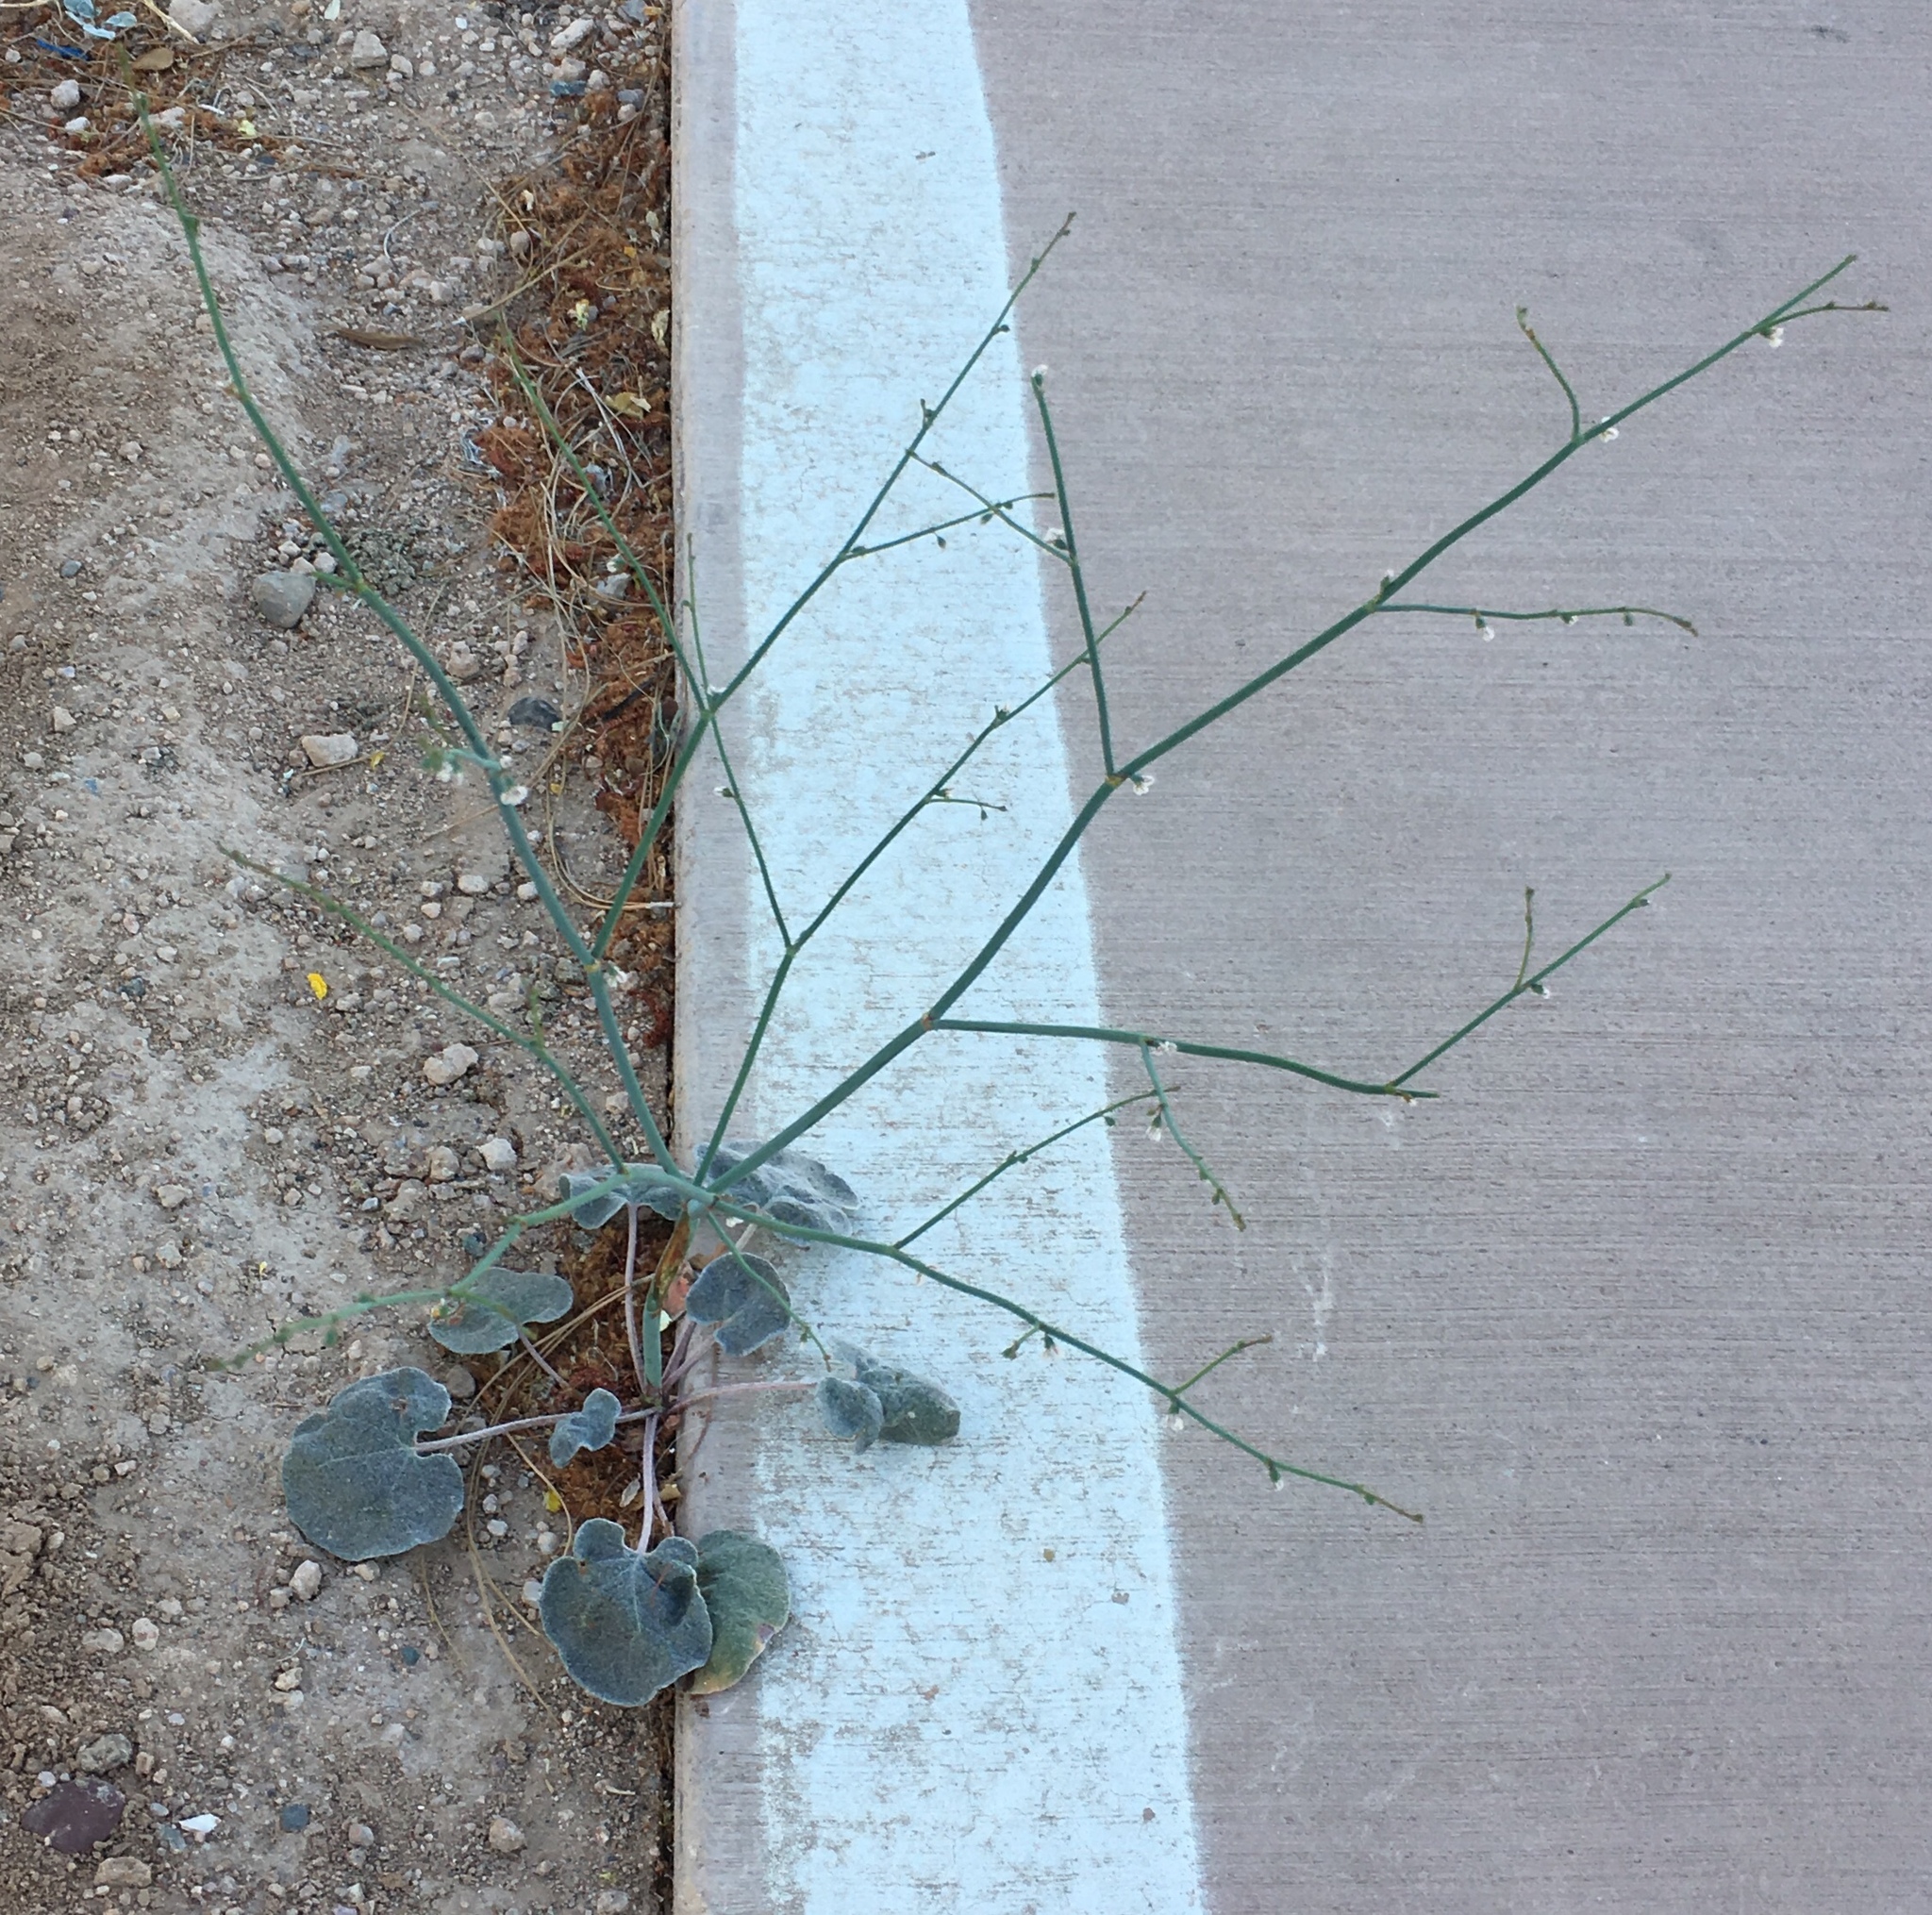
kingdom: Plantae
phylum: Tracheophyta
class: Magnoliopsida
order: Caryophyllales
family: Polygonaceae
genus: Eriogonum
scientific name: Eriogonum deflexum
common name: Skeleton-weed
